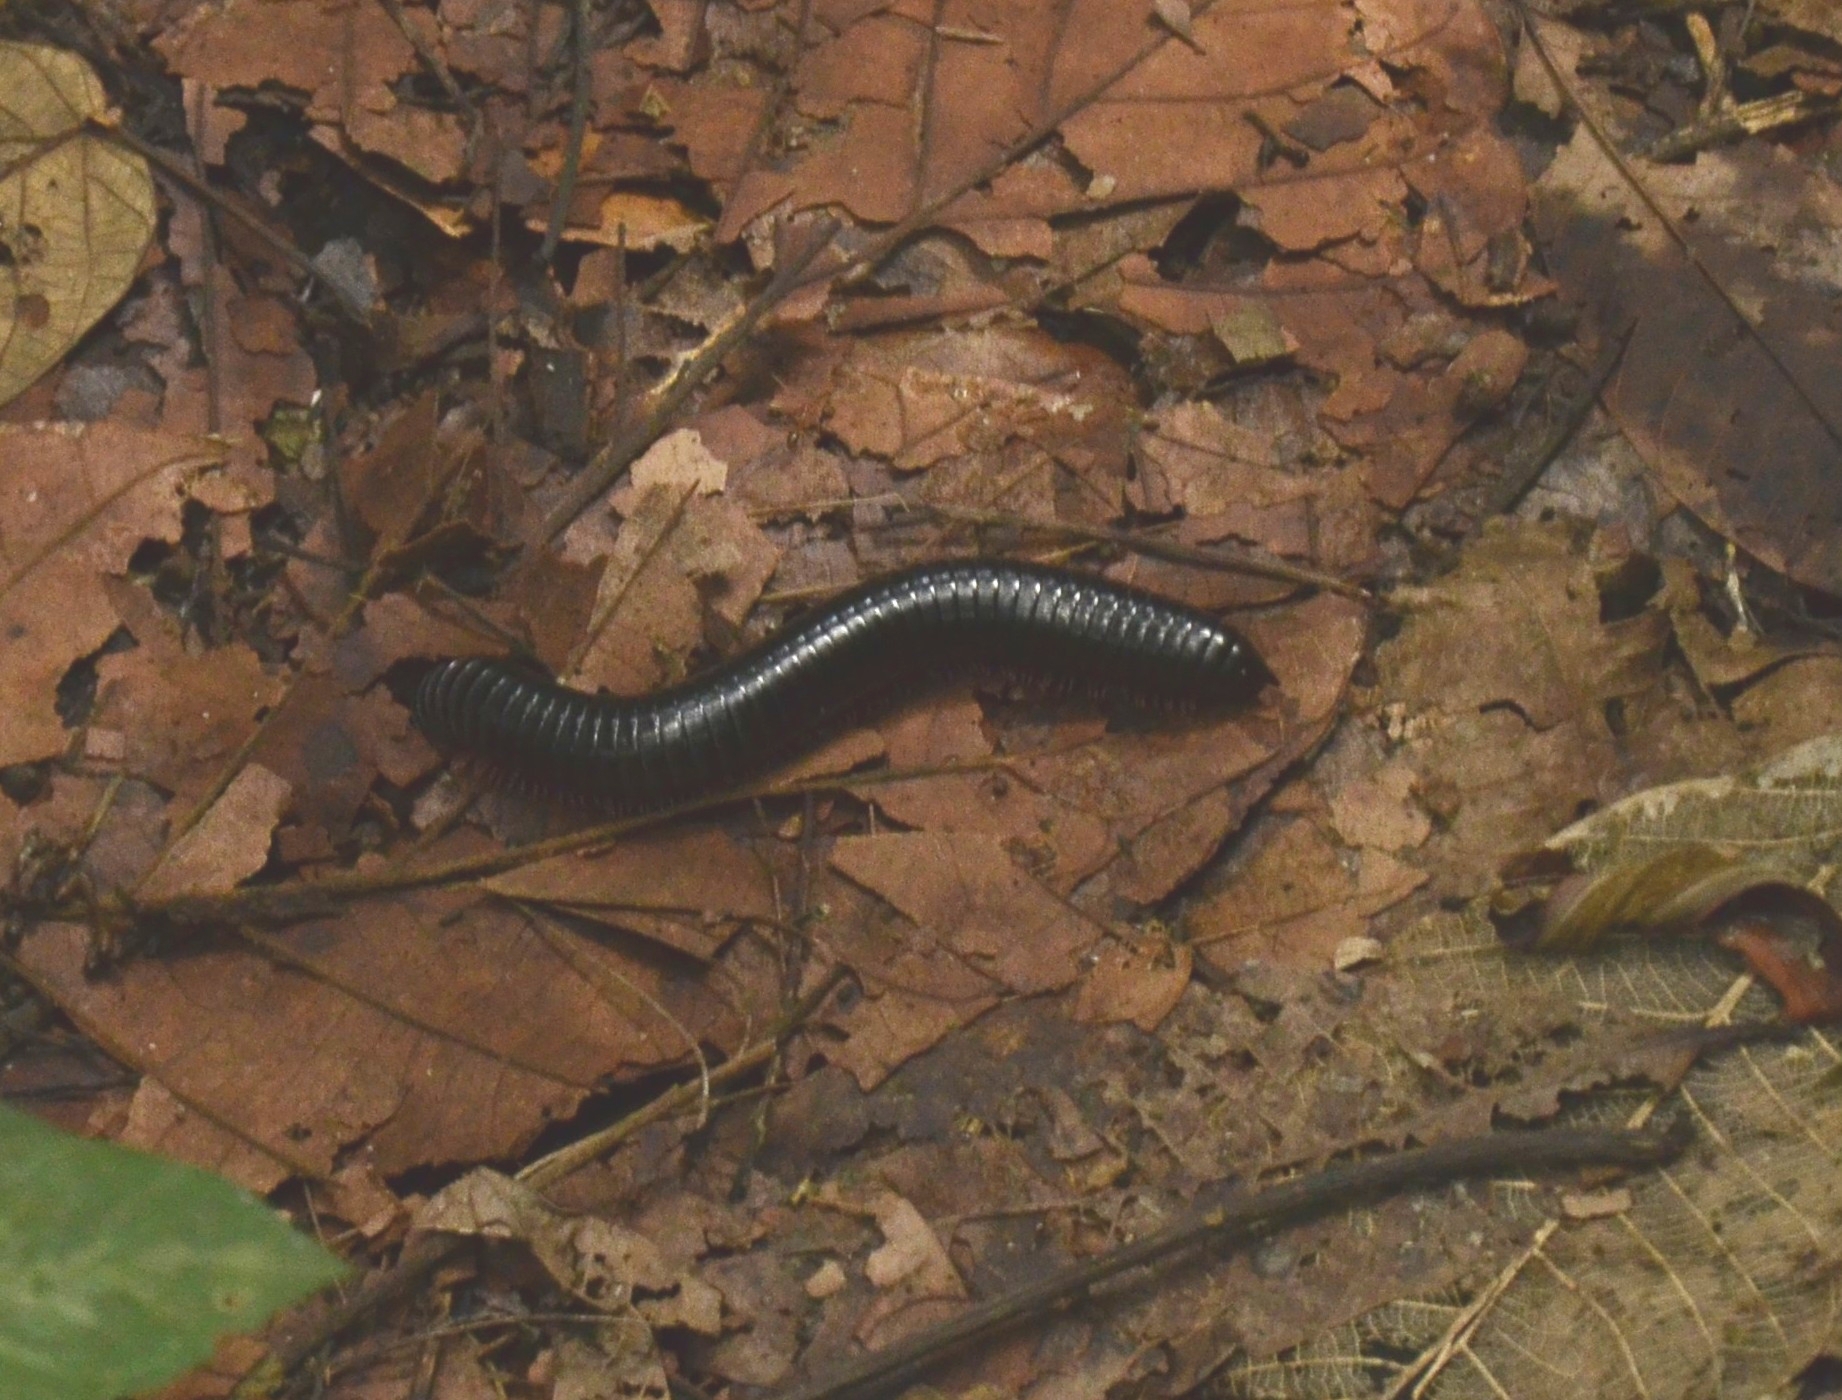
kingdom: Animalia
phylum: Arthropoda
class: Diplopoda
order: Spirostreptida
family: Harpagophoridae
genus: Phyllogonostreptus
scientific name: Phyllogonostreptus nigrolabiatus
